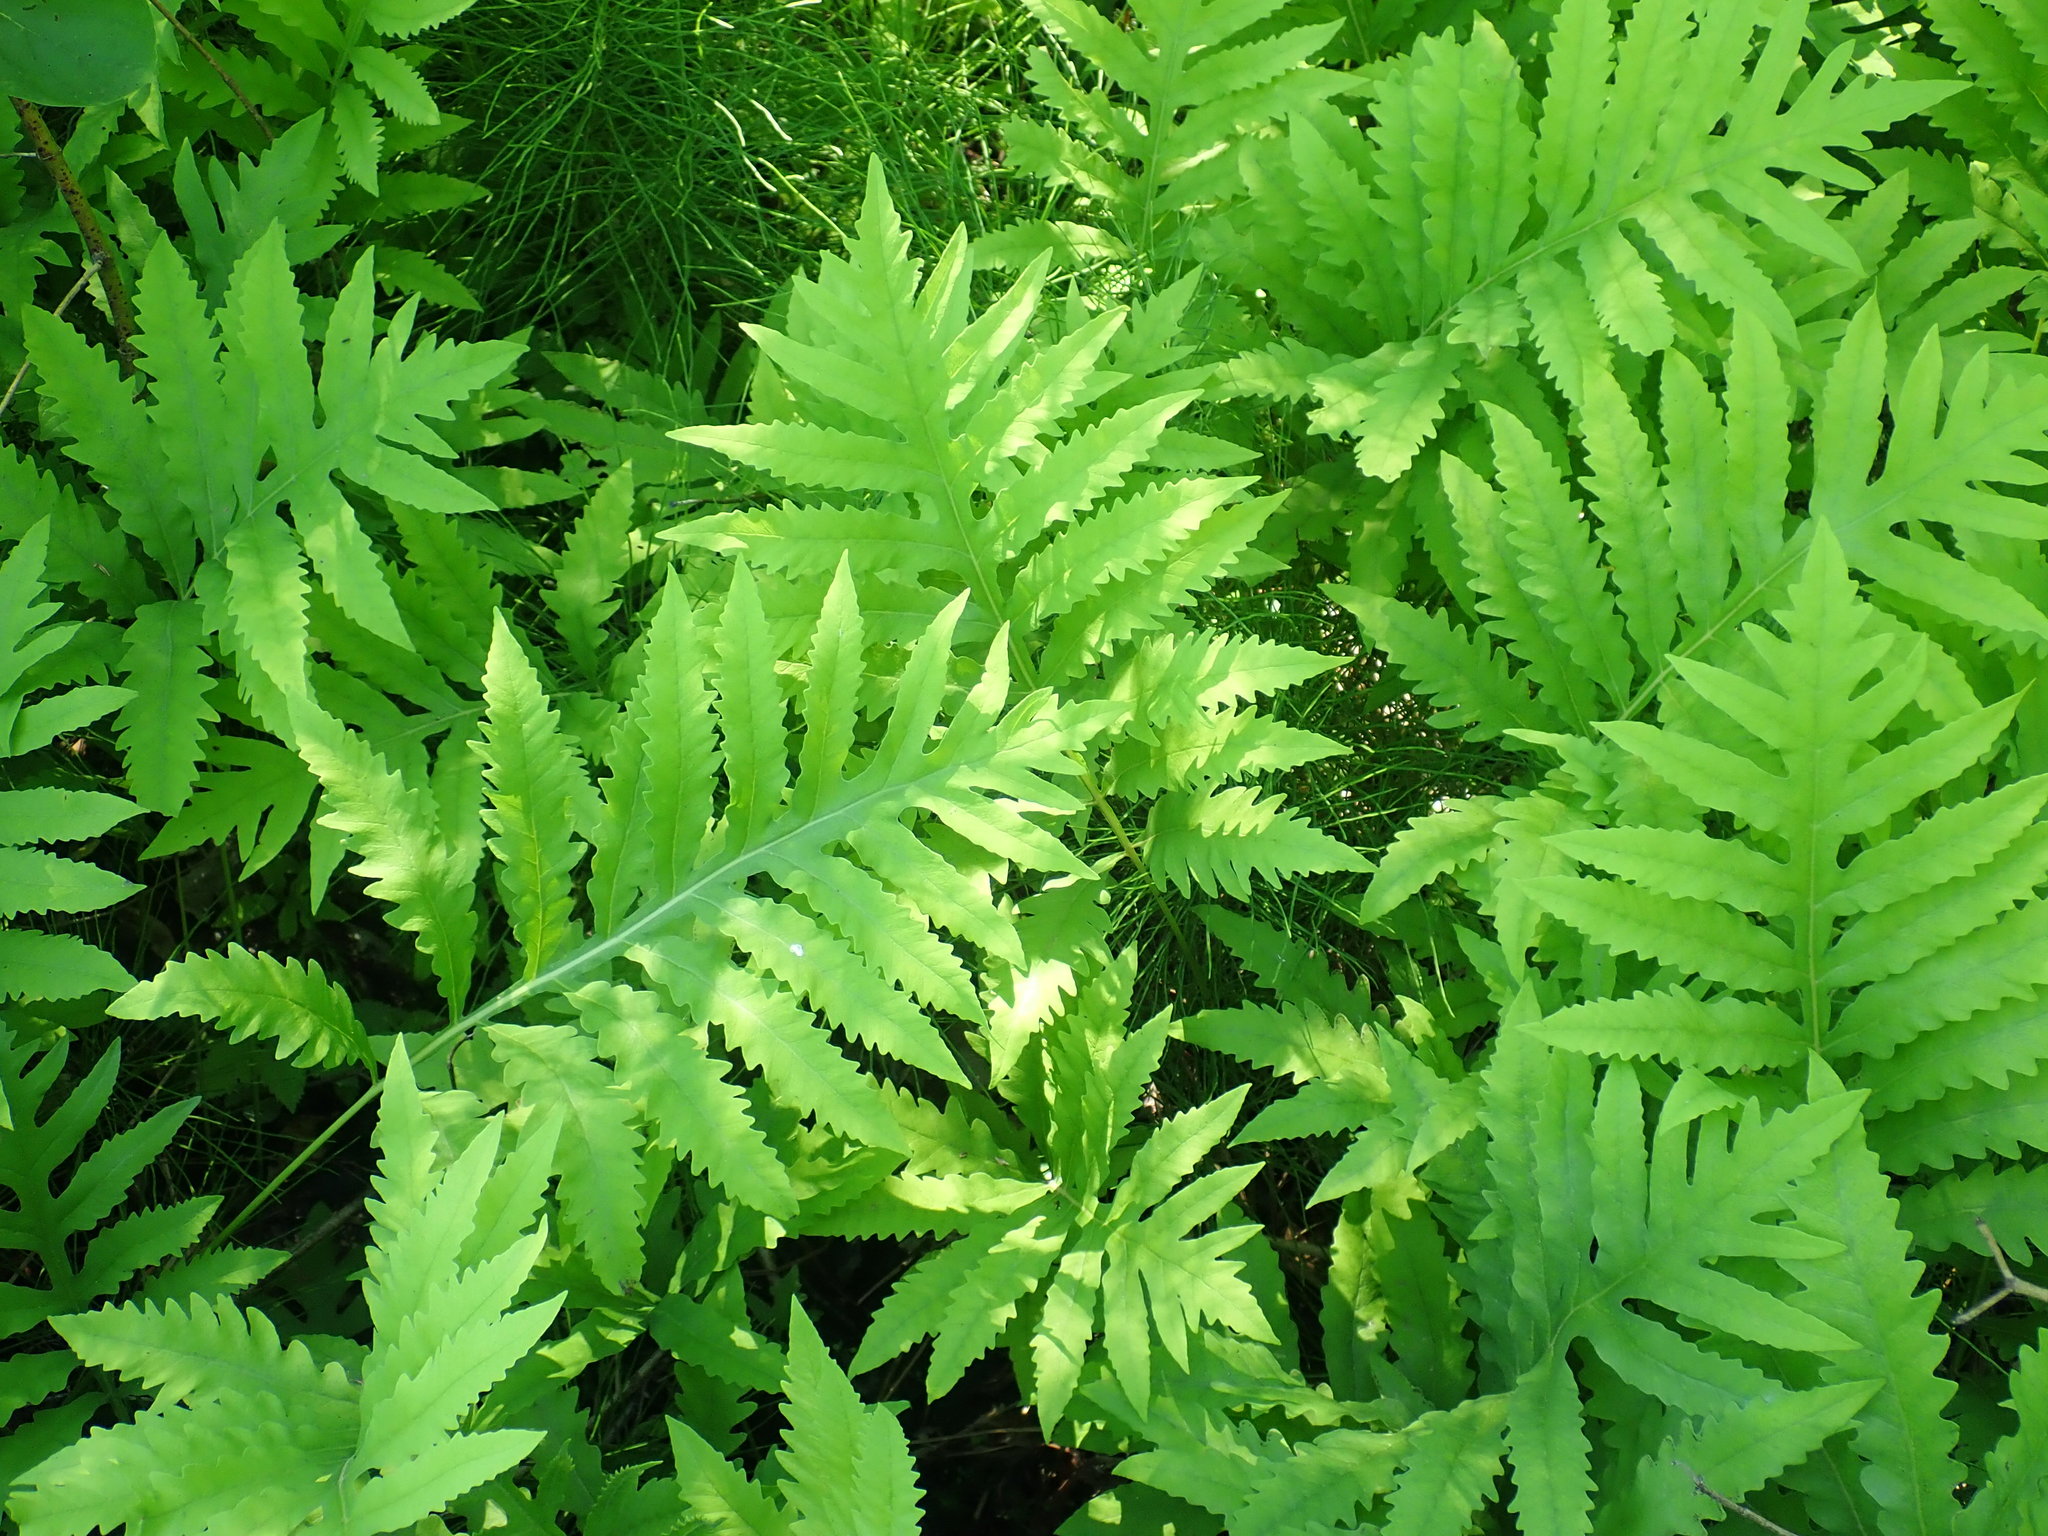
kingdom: Plantae
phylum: Tracheophyta
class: Polypodiopsida
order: Polypodiales
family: Onocleaceae
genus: Onoclea
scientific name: Onoclea sensibilis
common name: Sensitive fern
